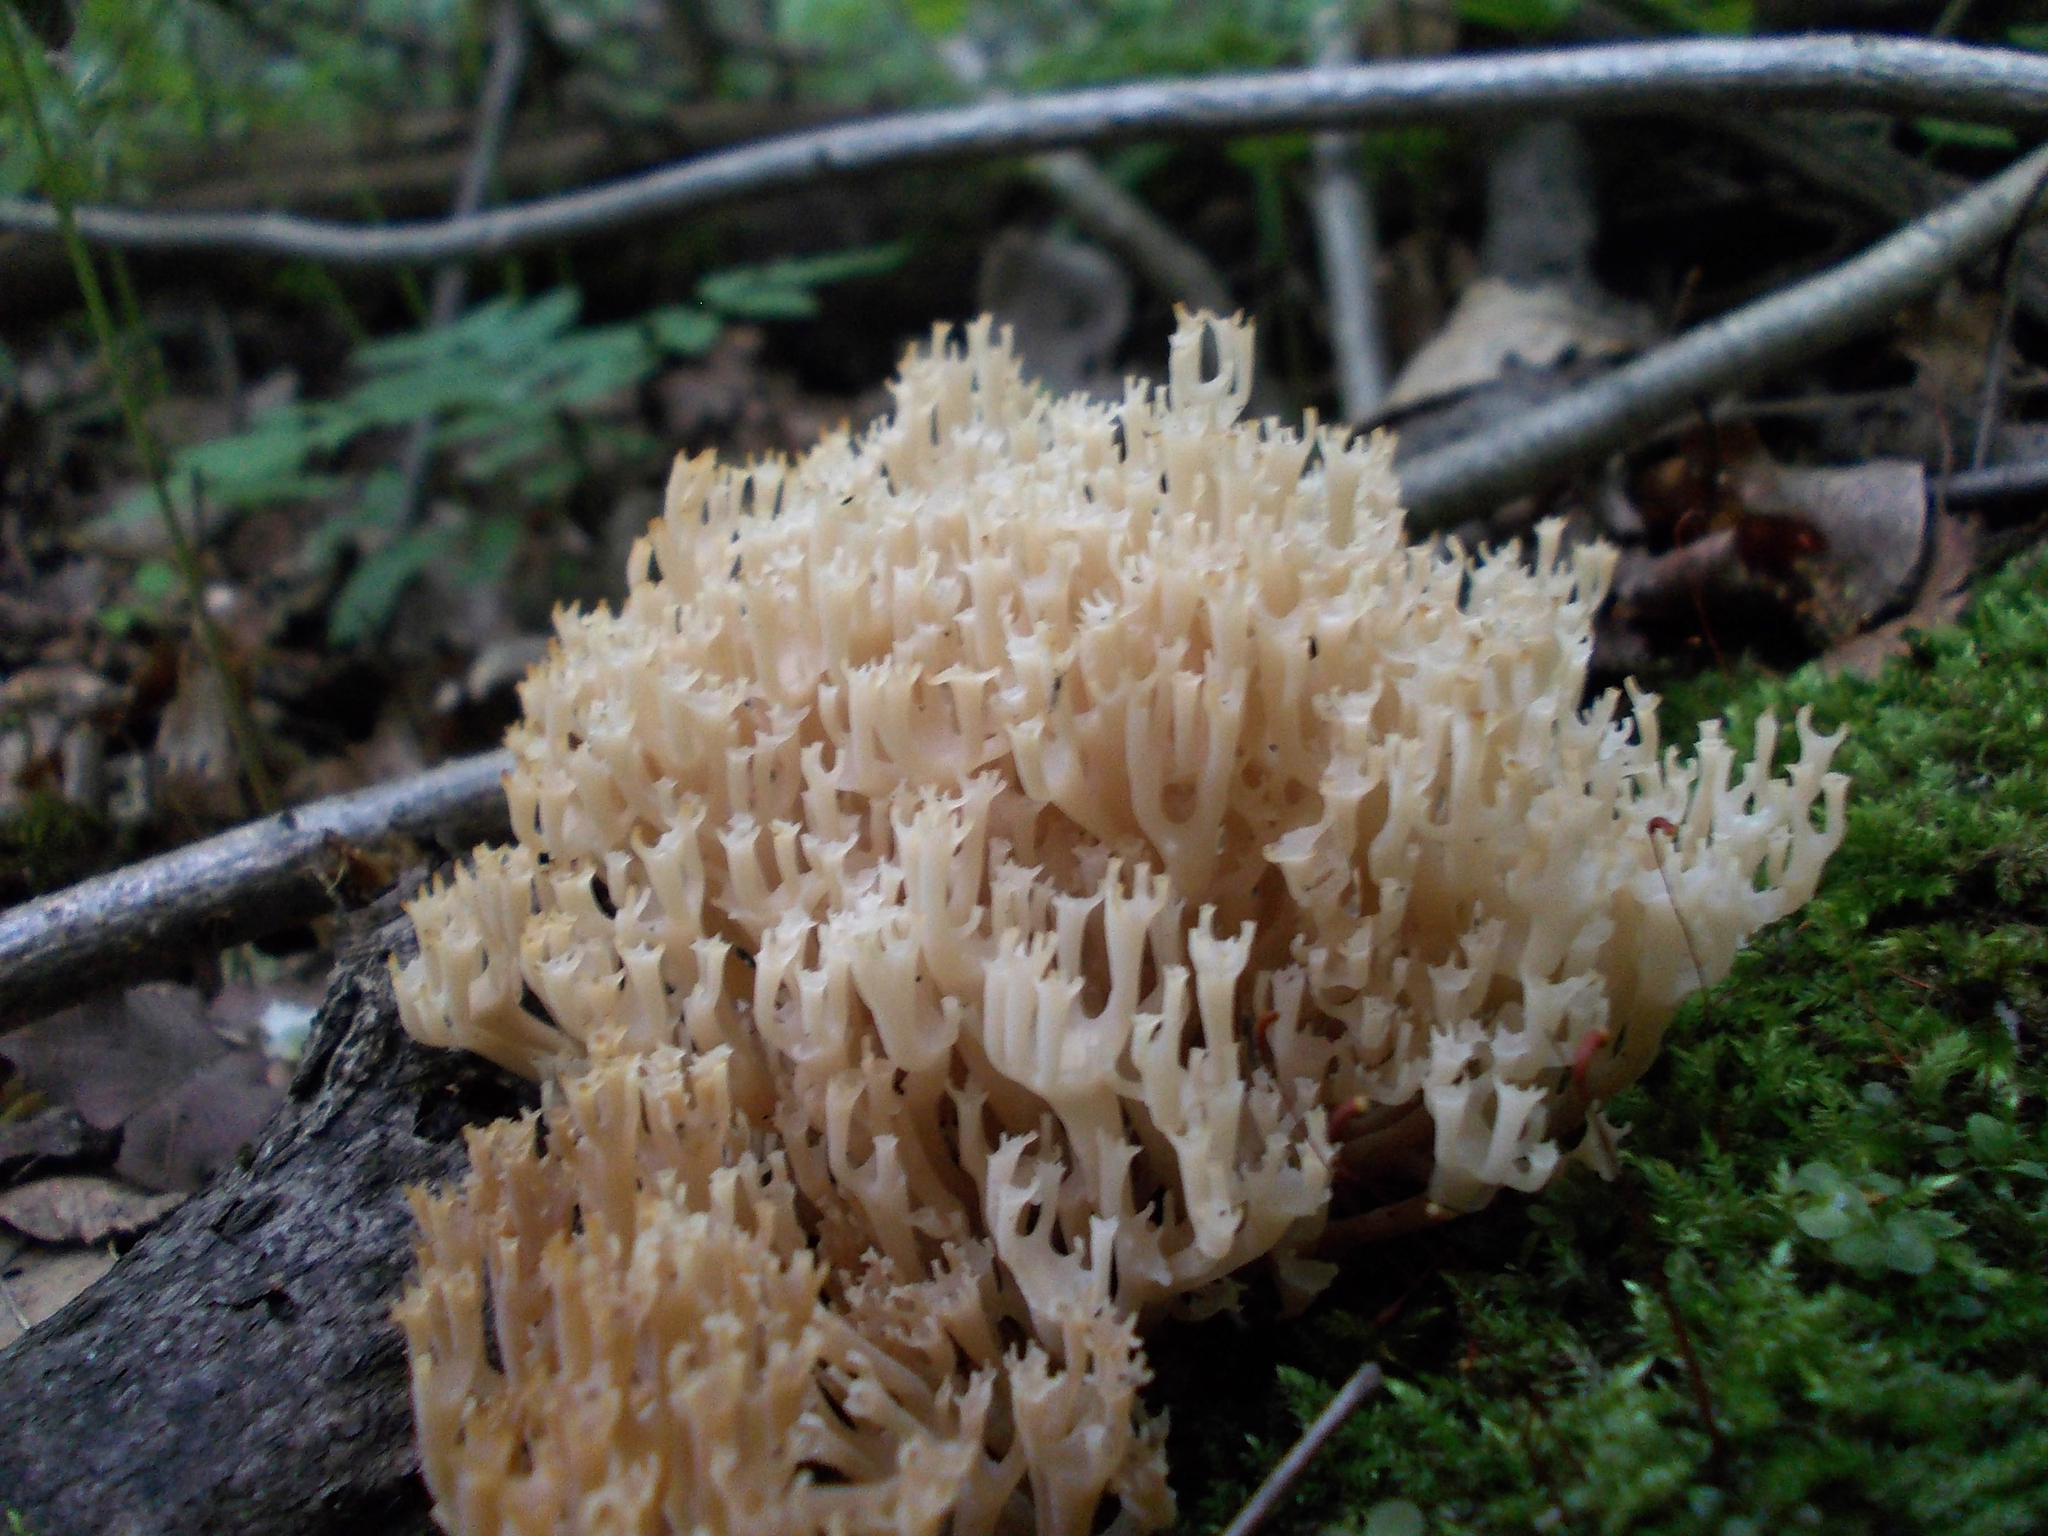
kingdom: Fungi
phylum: Basidiomycota
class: Agaricomycetes
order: Russulales
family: Auriscalpiaceae
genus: Artomyces
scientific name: Artomyces pyxidatus
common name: Crown-tipped coral fungus
